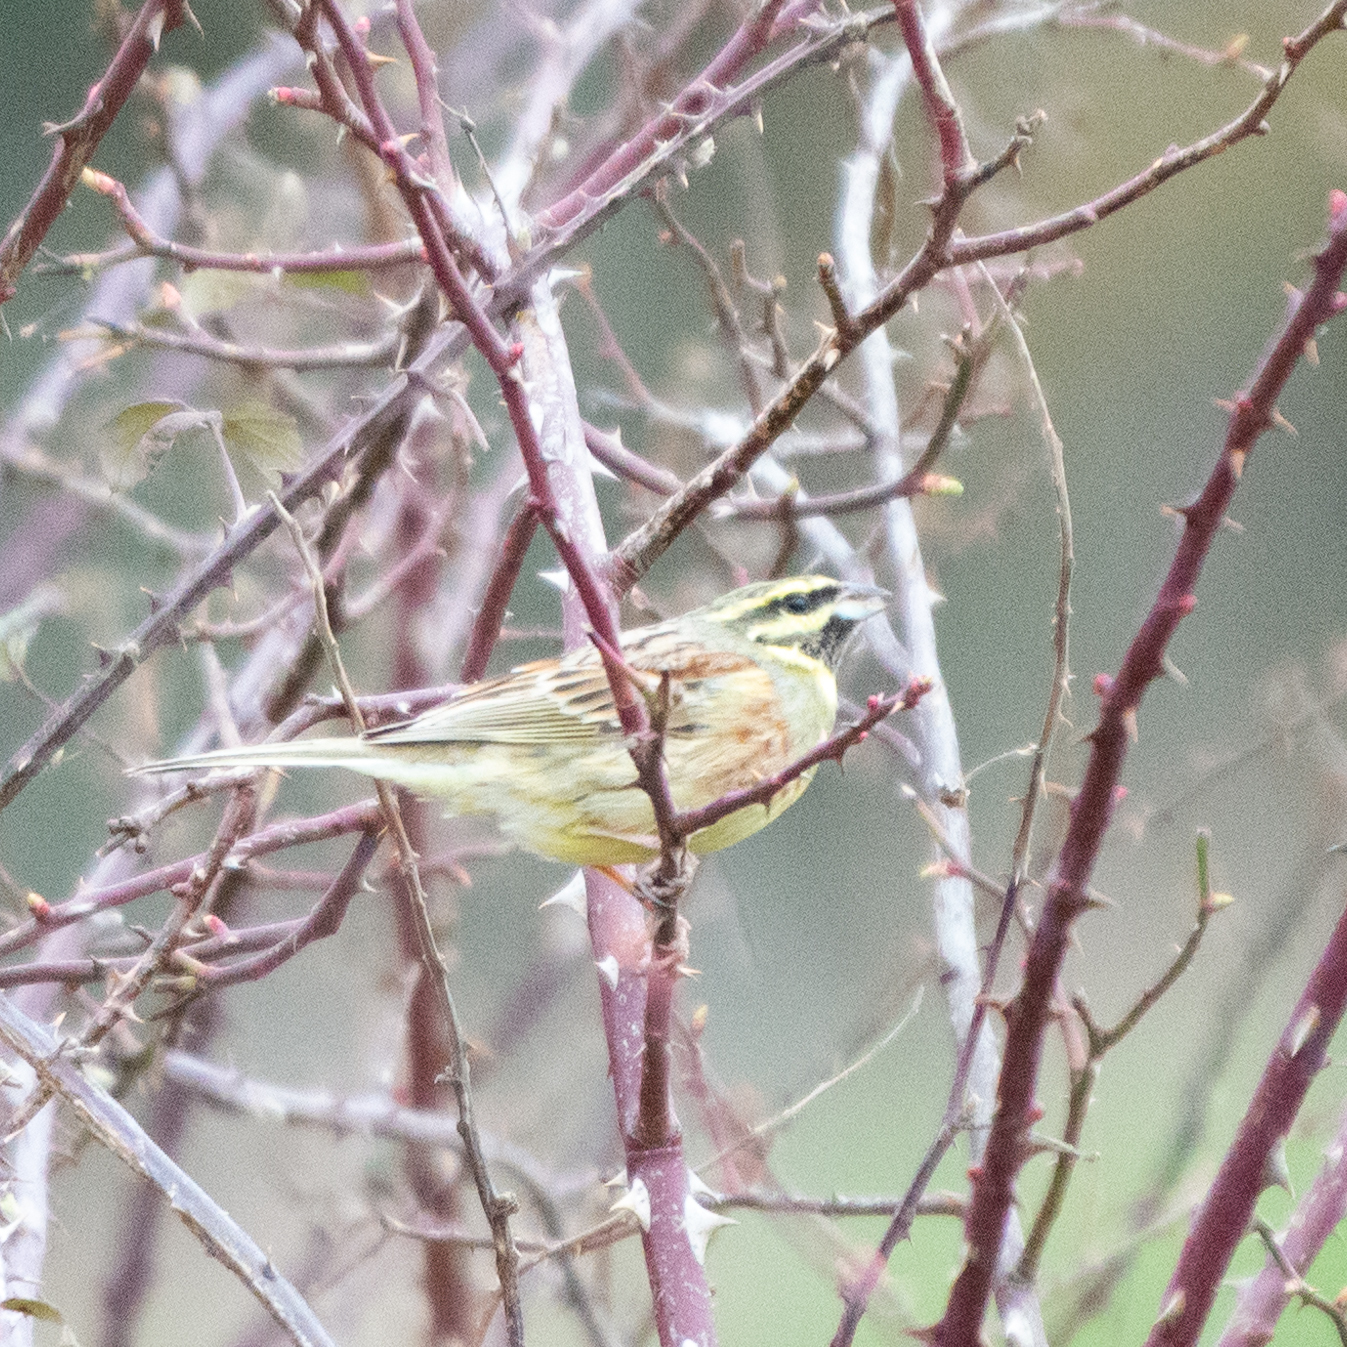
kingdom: Animalia
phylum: Chordata
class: Aves
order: Passeriformes
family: Emberizidae
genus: Emberiza
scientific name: Emberiza cirlus
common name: Cirl bunting
